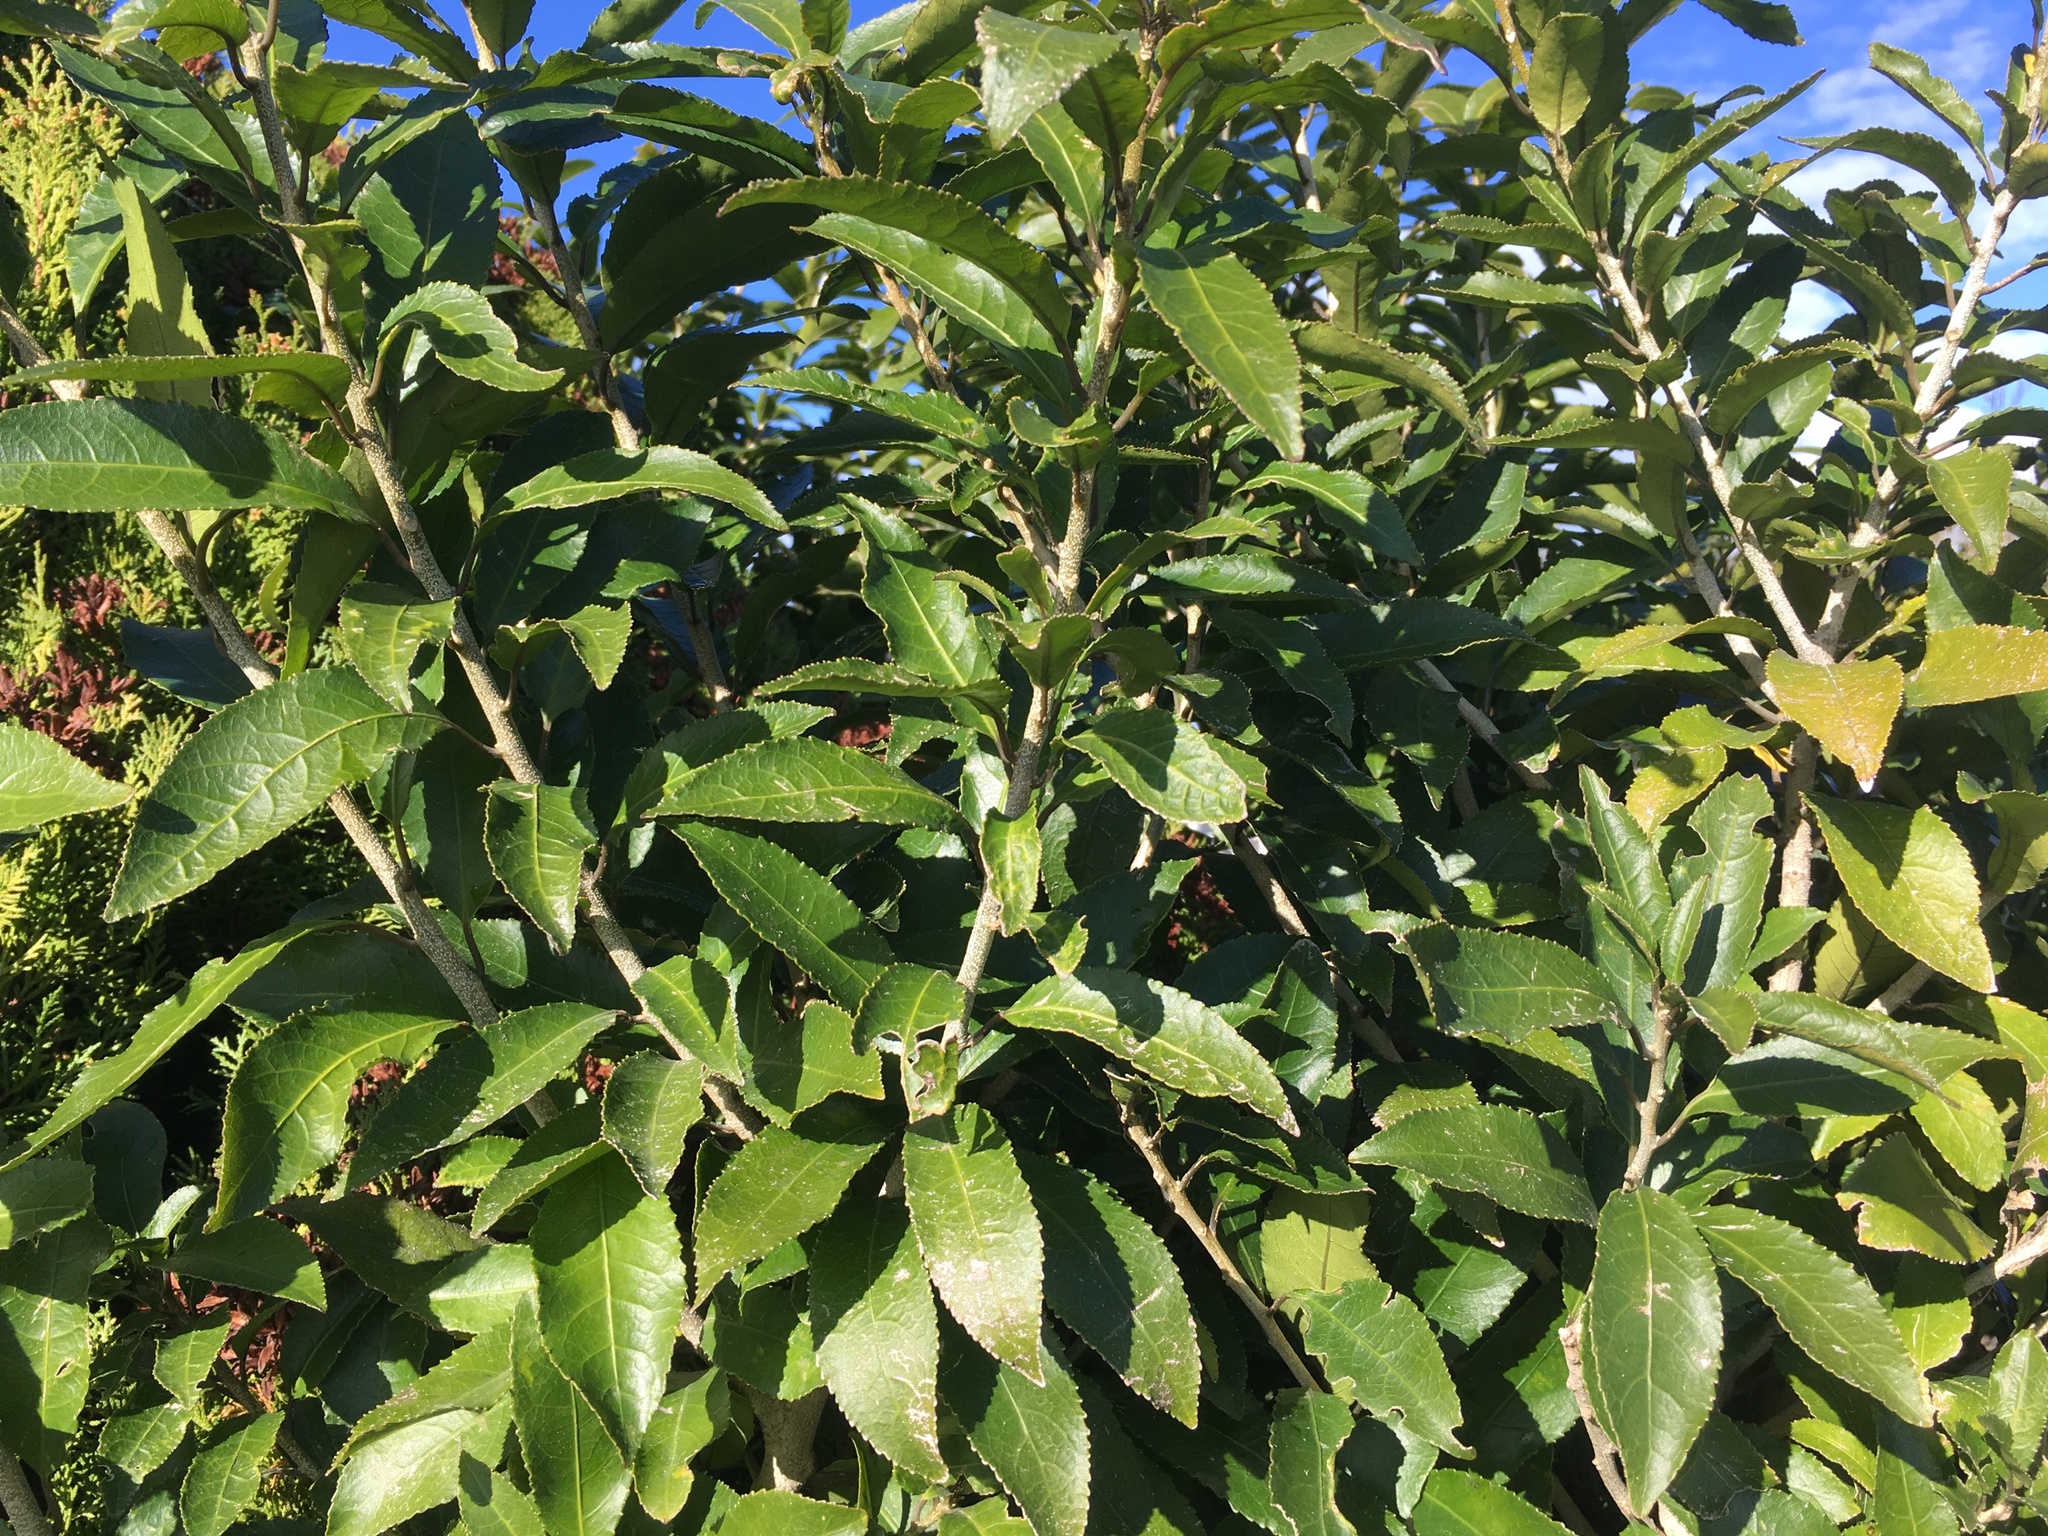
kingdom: Plantae
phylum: Tracheophyta
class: Magnoliopsida
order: Malpighiales
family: Violaceae
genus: Melicytus
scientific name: Melicytus ramiflorus
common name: Mahoe
